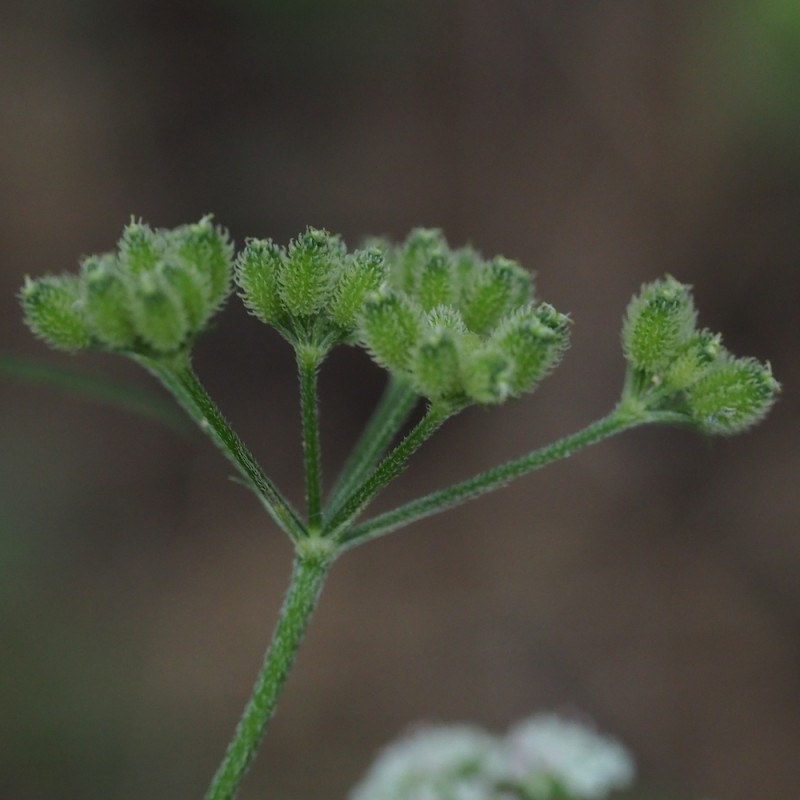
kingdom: Plantae
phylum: Tracheophyta
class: Magnoliopsida
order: Apiales
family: Apiaceae
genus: Torilis
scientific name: Torilis japonica
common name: Upright hedge-parsley
